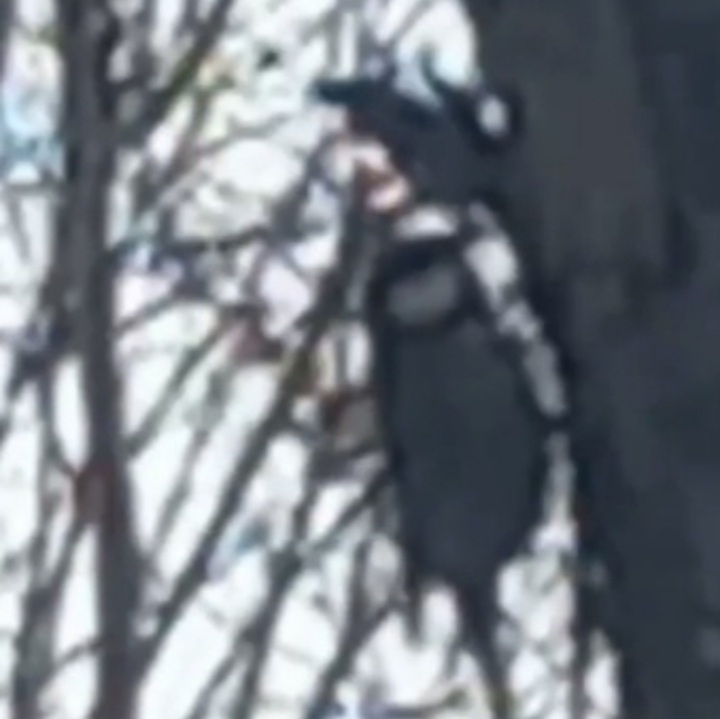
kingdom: Animalia
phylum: Chordata
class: Aves
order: Passeriformes
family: Paridae
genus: Parus
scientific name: Parus major
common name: Great tit
